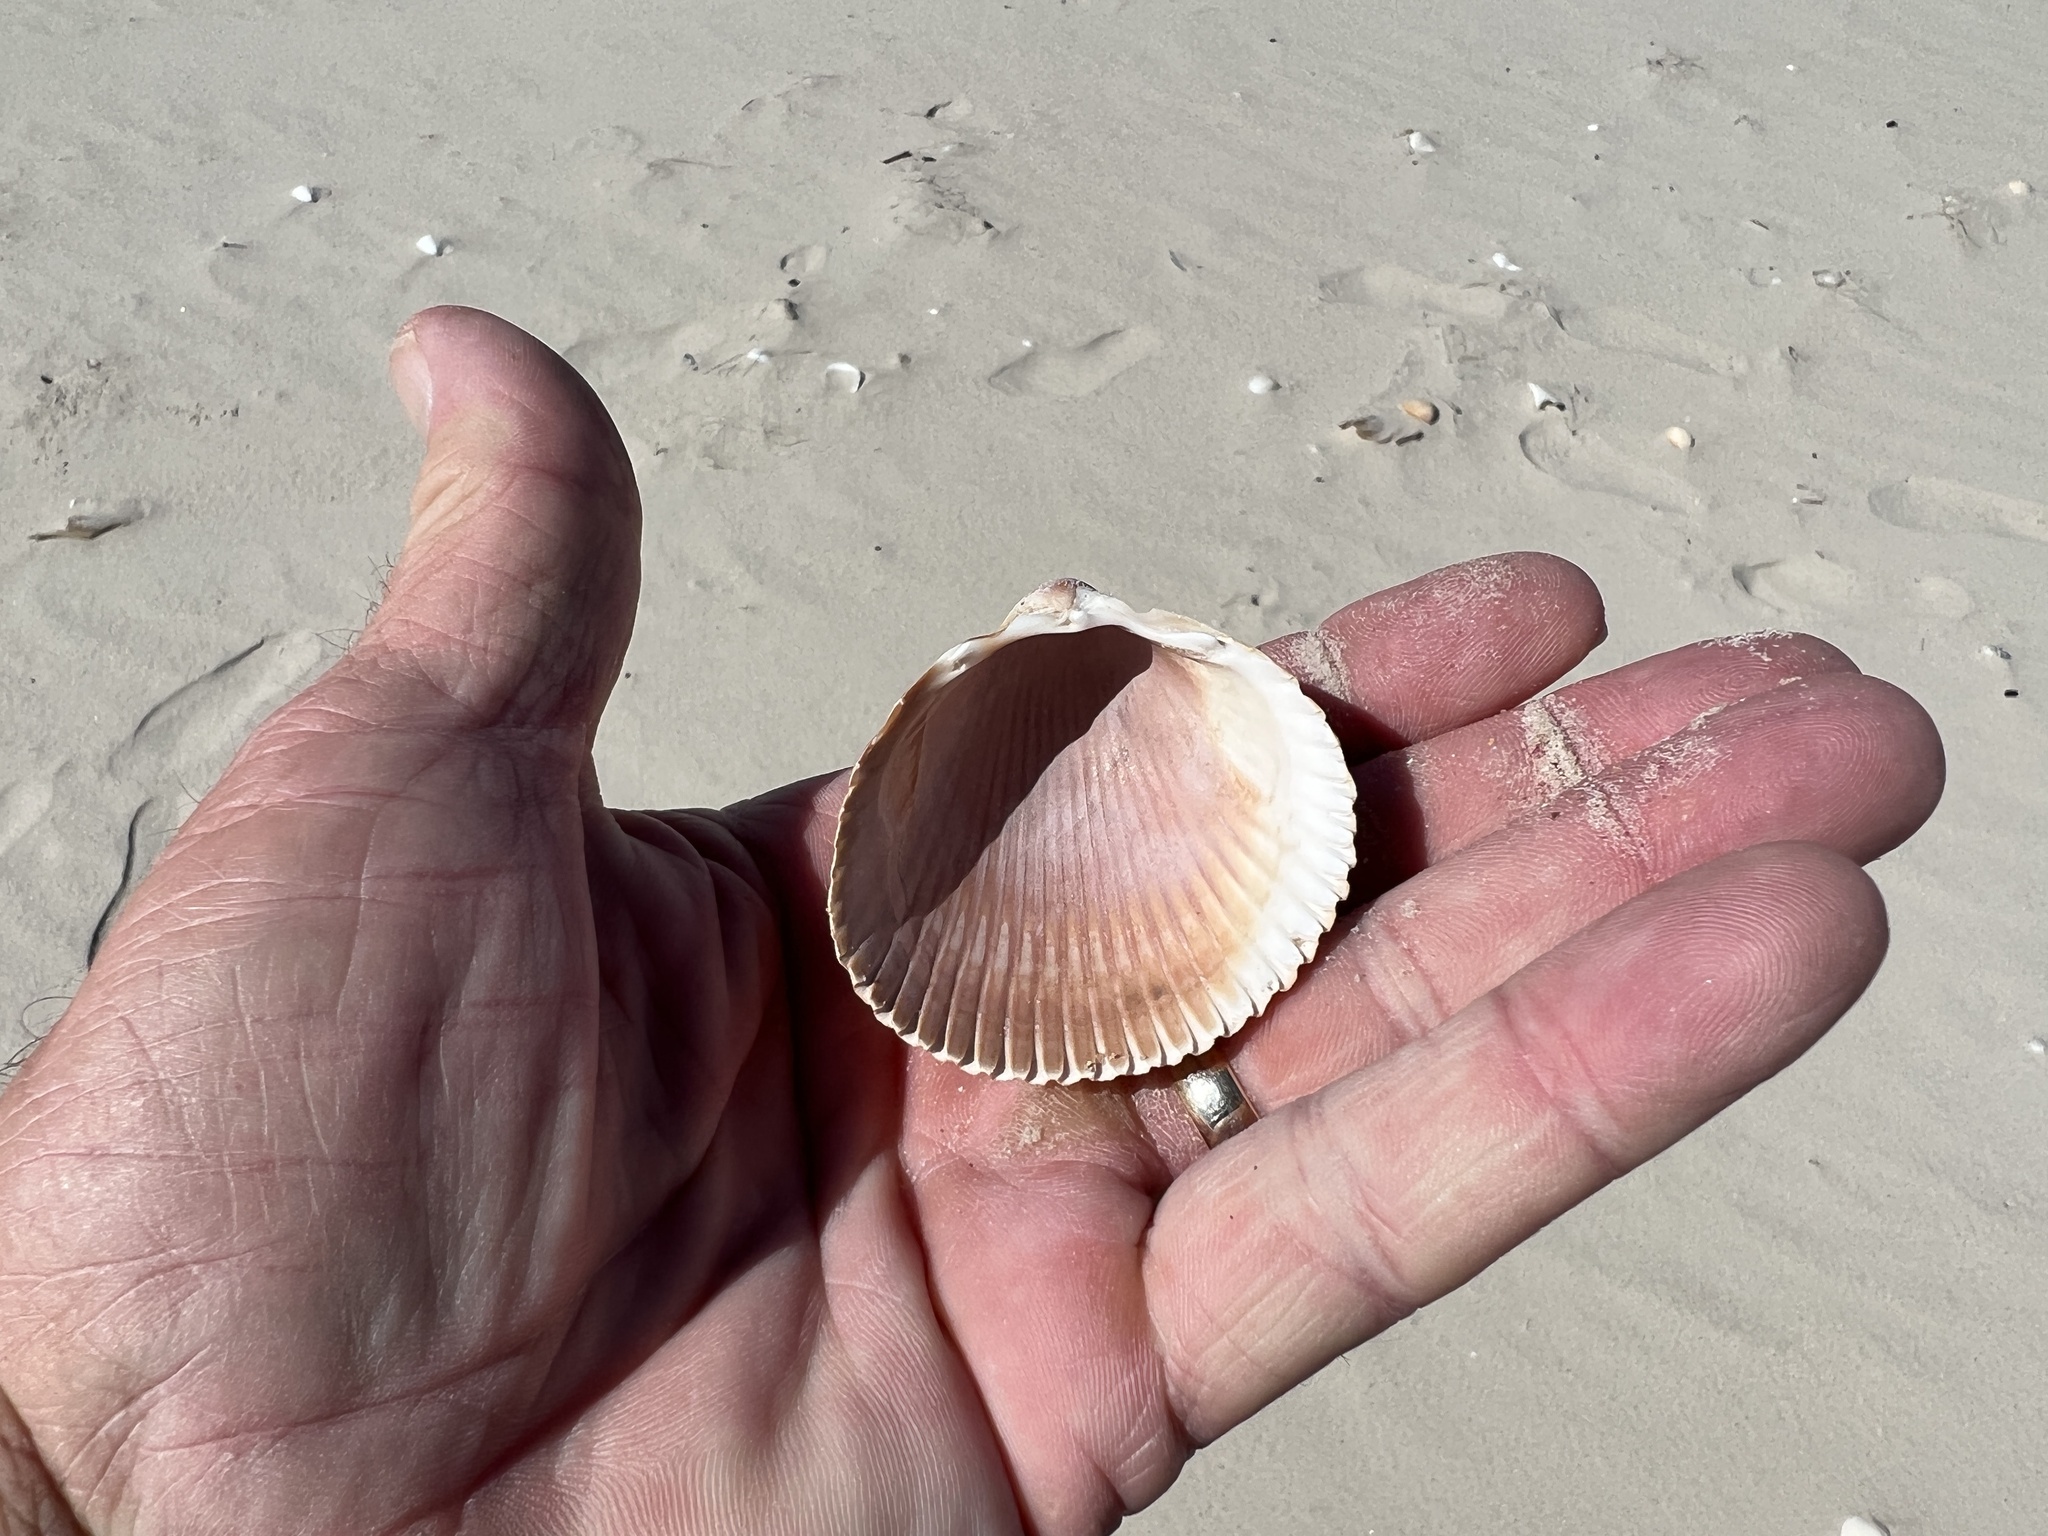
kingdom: Animalia
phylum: Mollusca
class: Bivalvia
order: Cardiida
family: Cardiidae
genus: Dinocardium
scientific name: Dinocardium robustum
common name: Atlantic giant cockle
